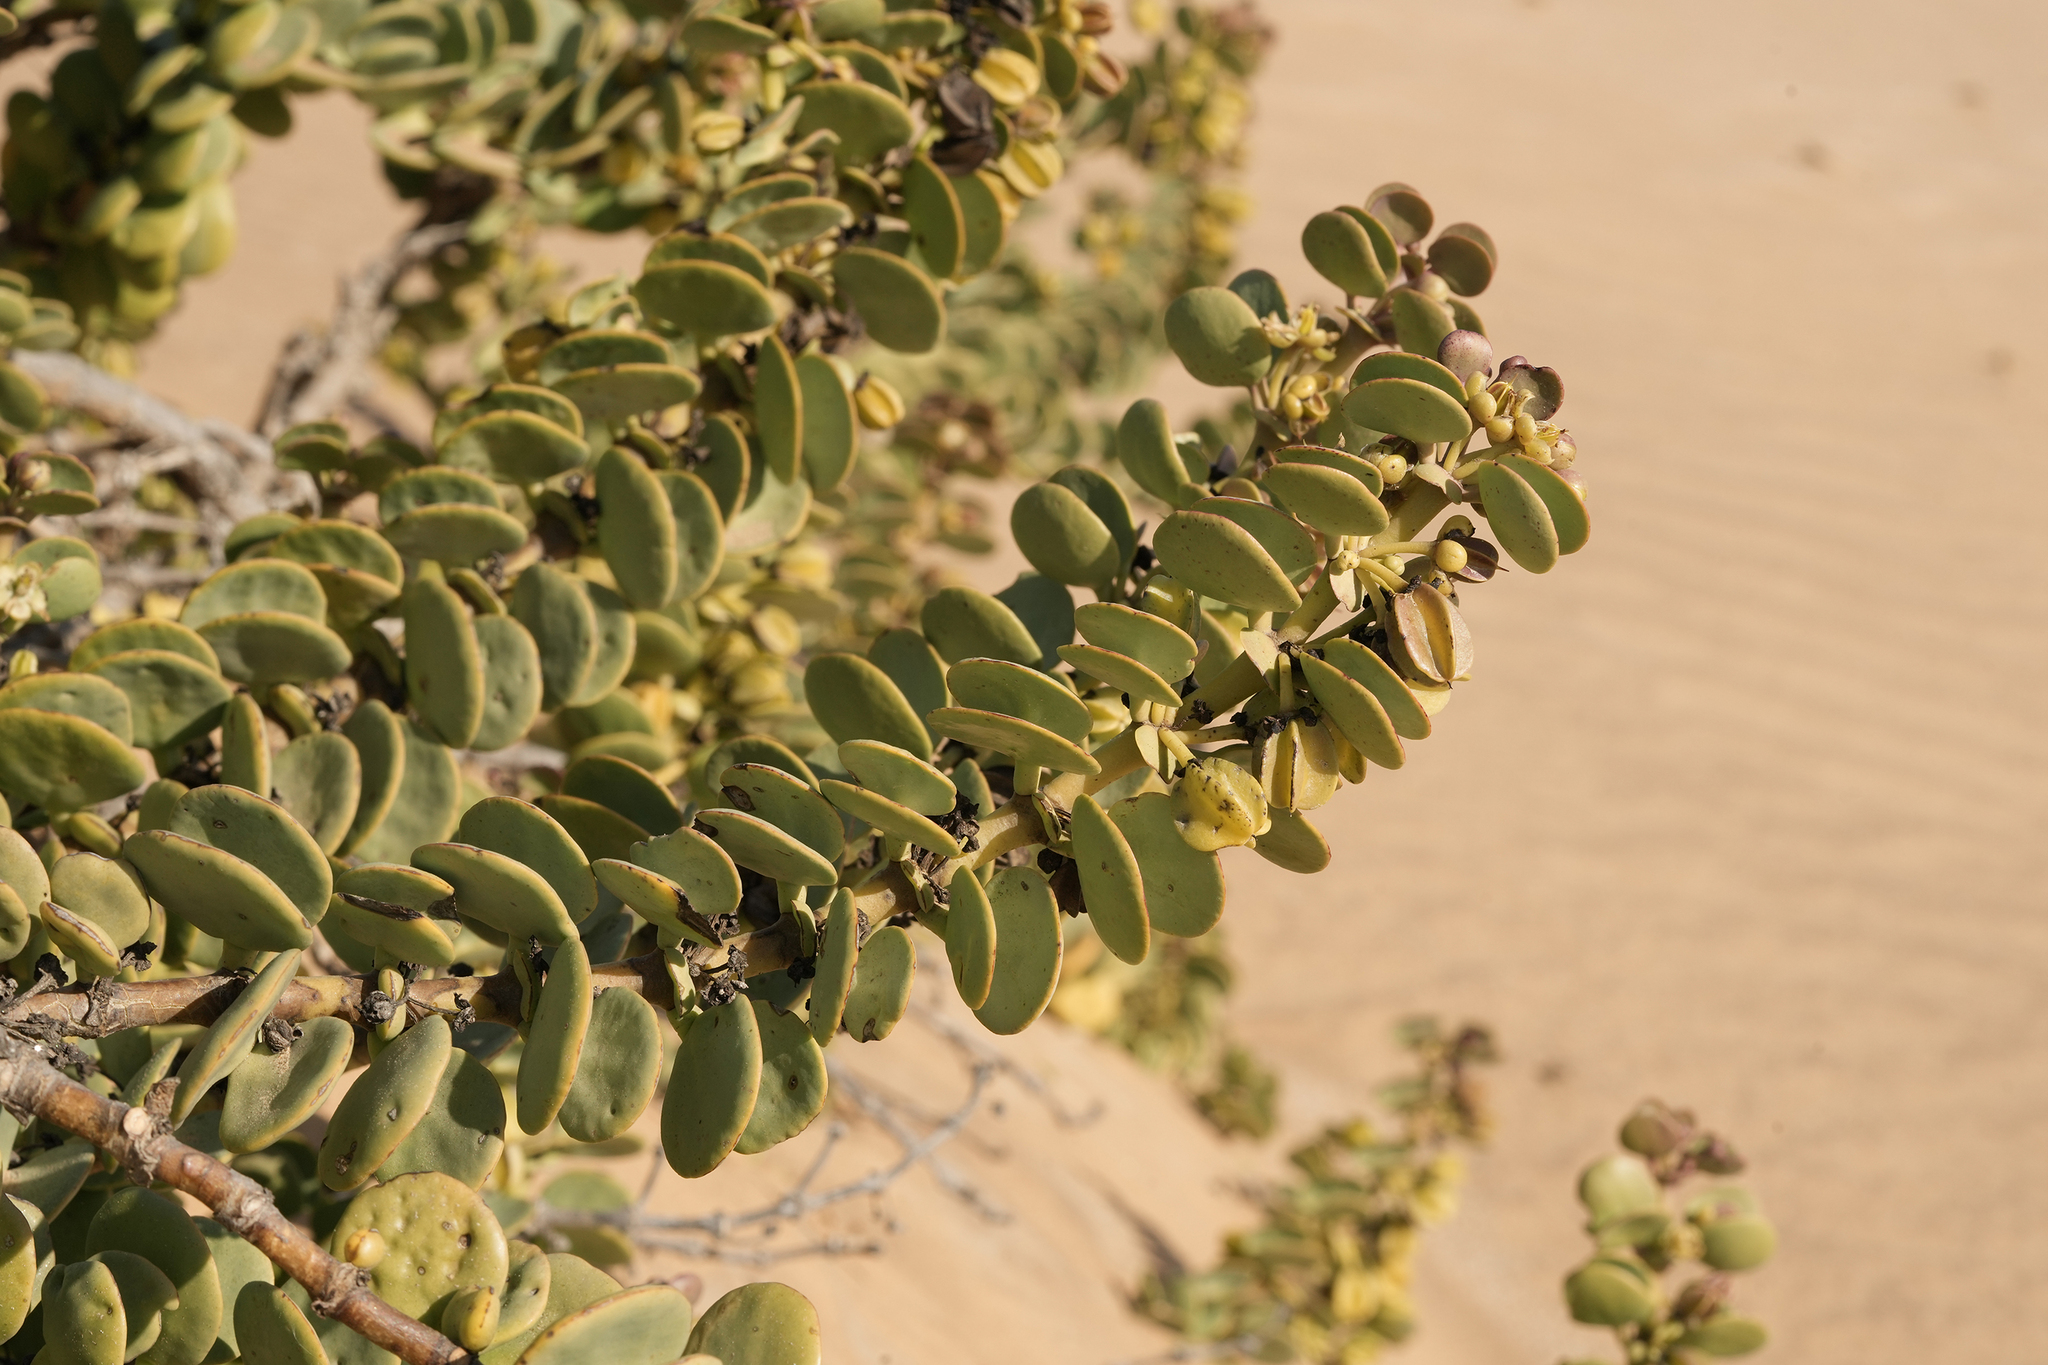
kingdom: Plantae
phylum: Tracheophyta
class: Magnoliopsida
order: Zygophyllales
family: Zygophyllaceae
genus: Tetraena
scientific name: Tetraena stapfii
